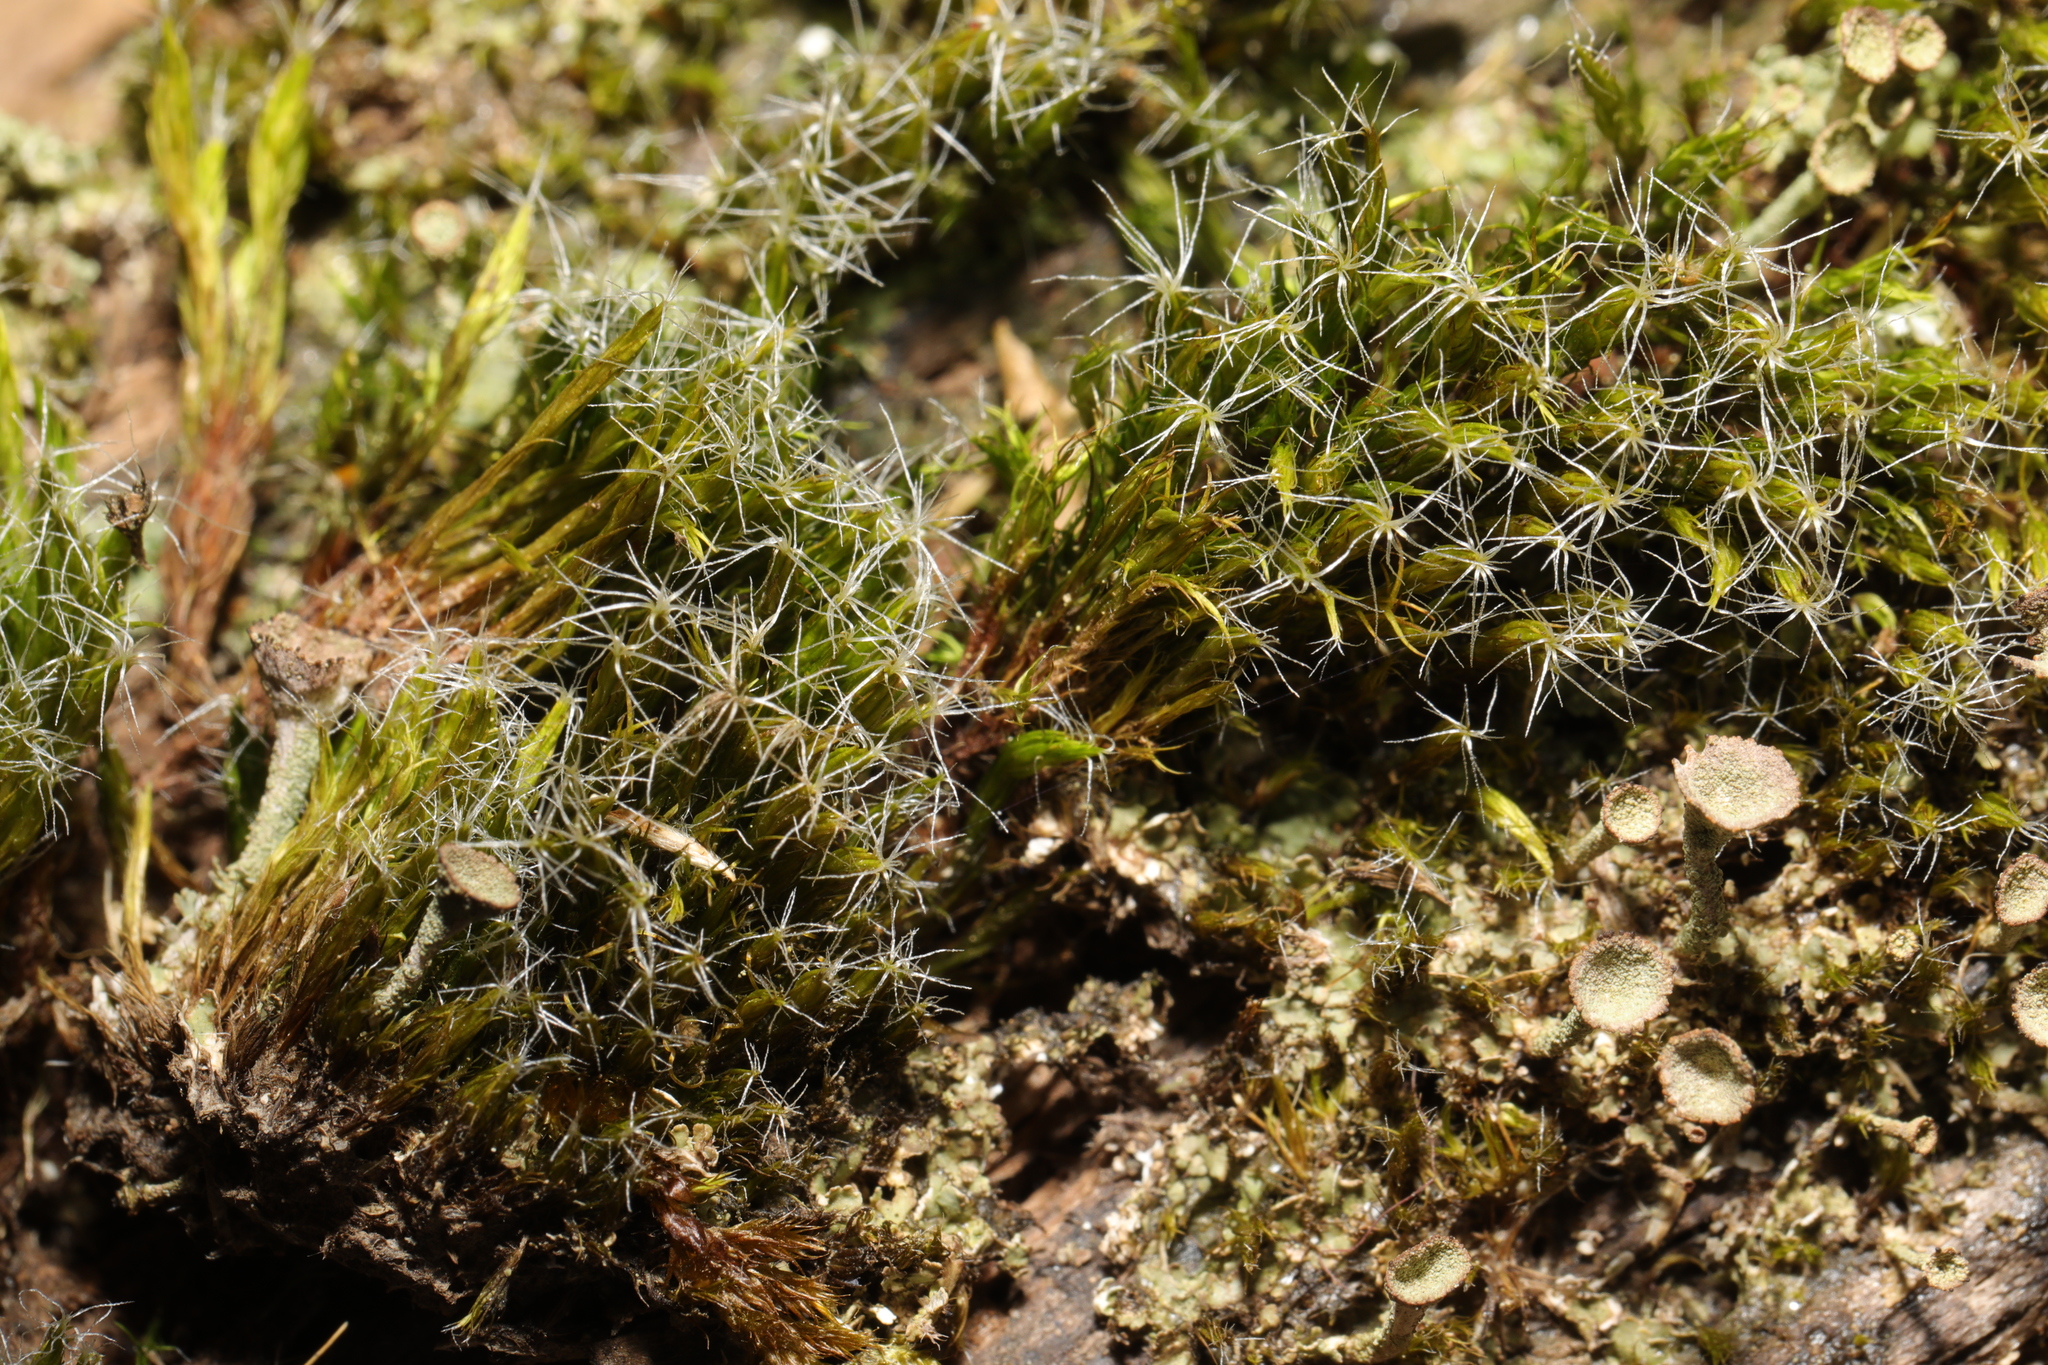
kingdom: Plantae
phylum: Bryophyta
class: Bryopsida
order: Dicranales
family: Leucobryaceae
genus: Campylopus
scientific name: Campylopus introflexus
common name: Heath star moss
